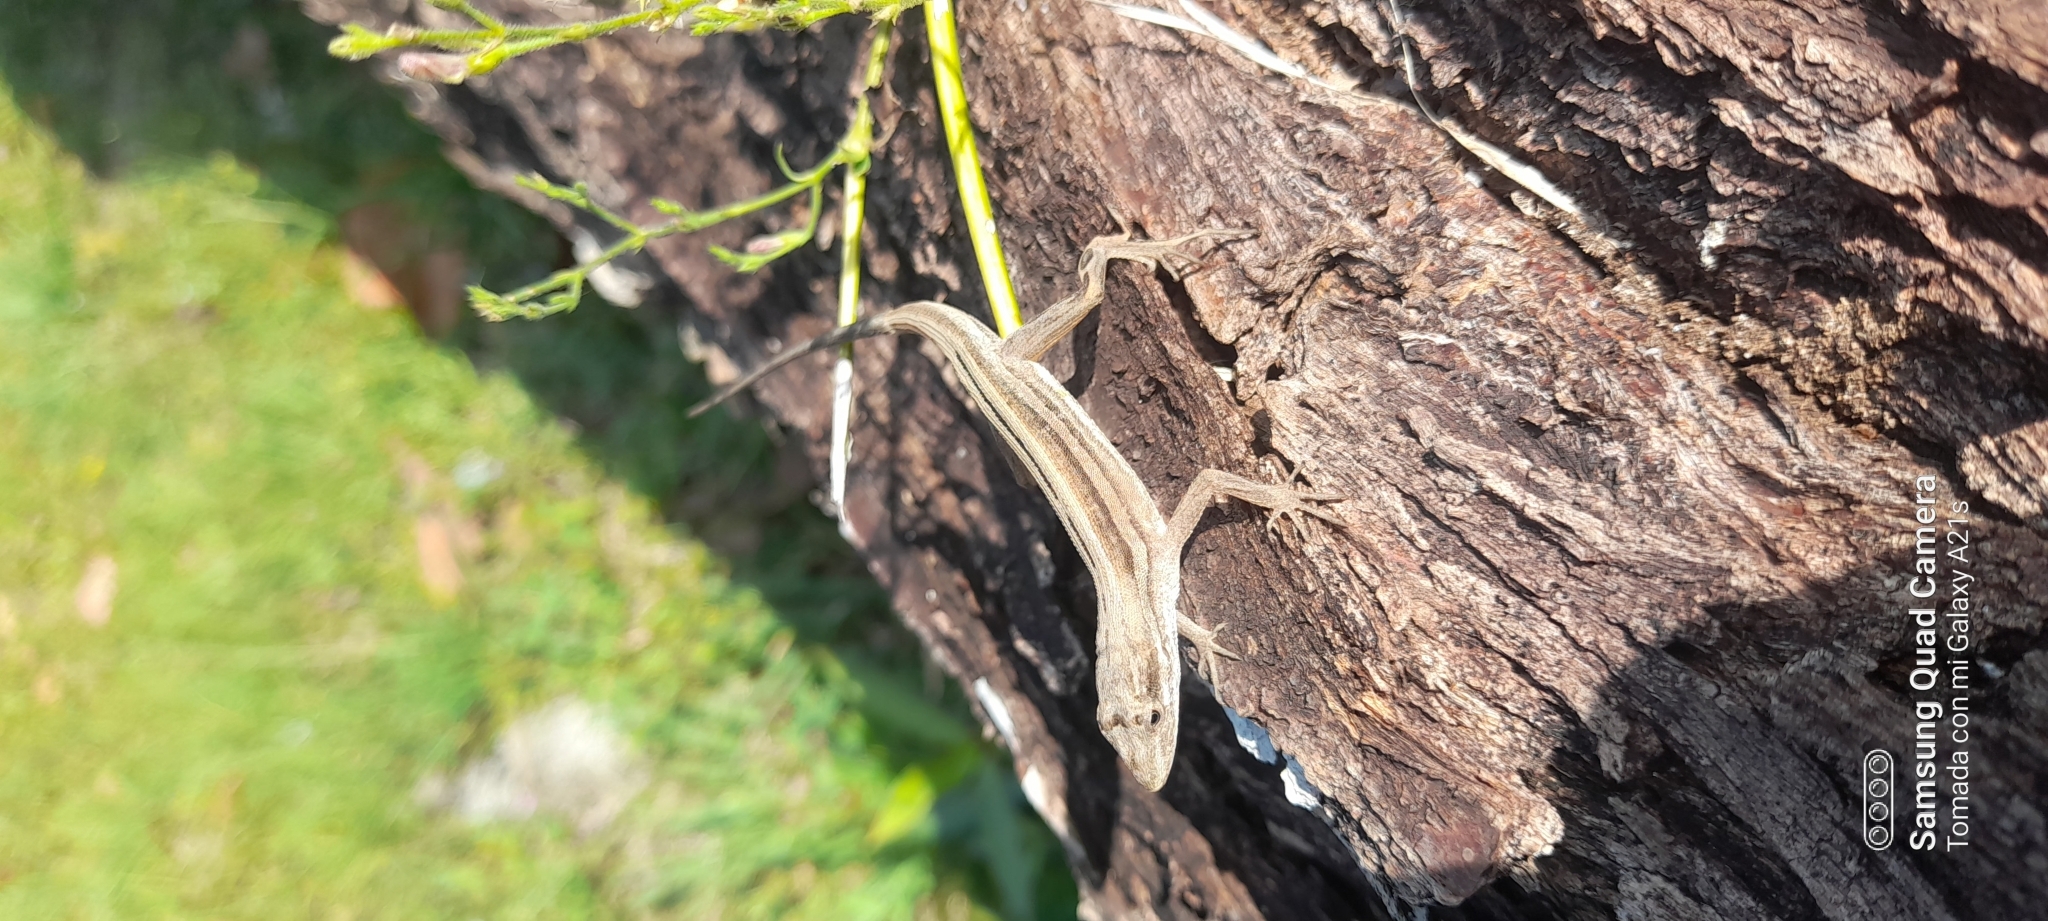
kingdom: Animalia
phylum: Chordata
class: Squamata
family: Dactyloidae
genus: Anolis
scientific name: Anolis auratus
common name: Grass anole
